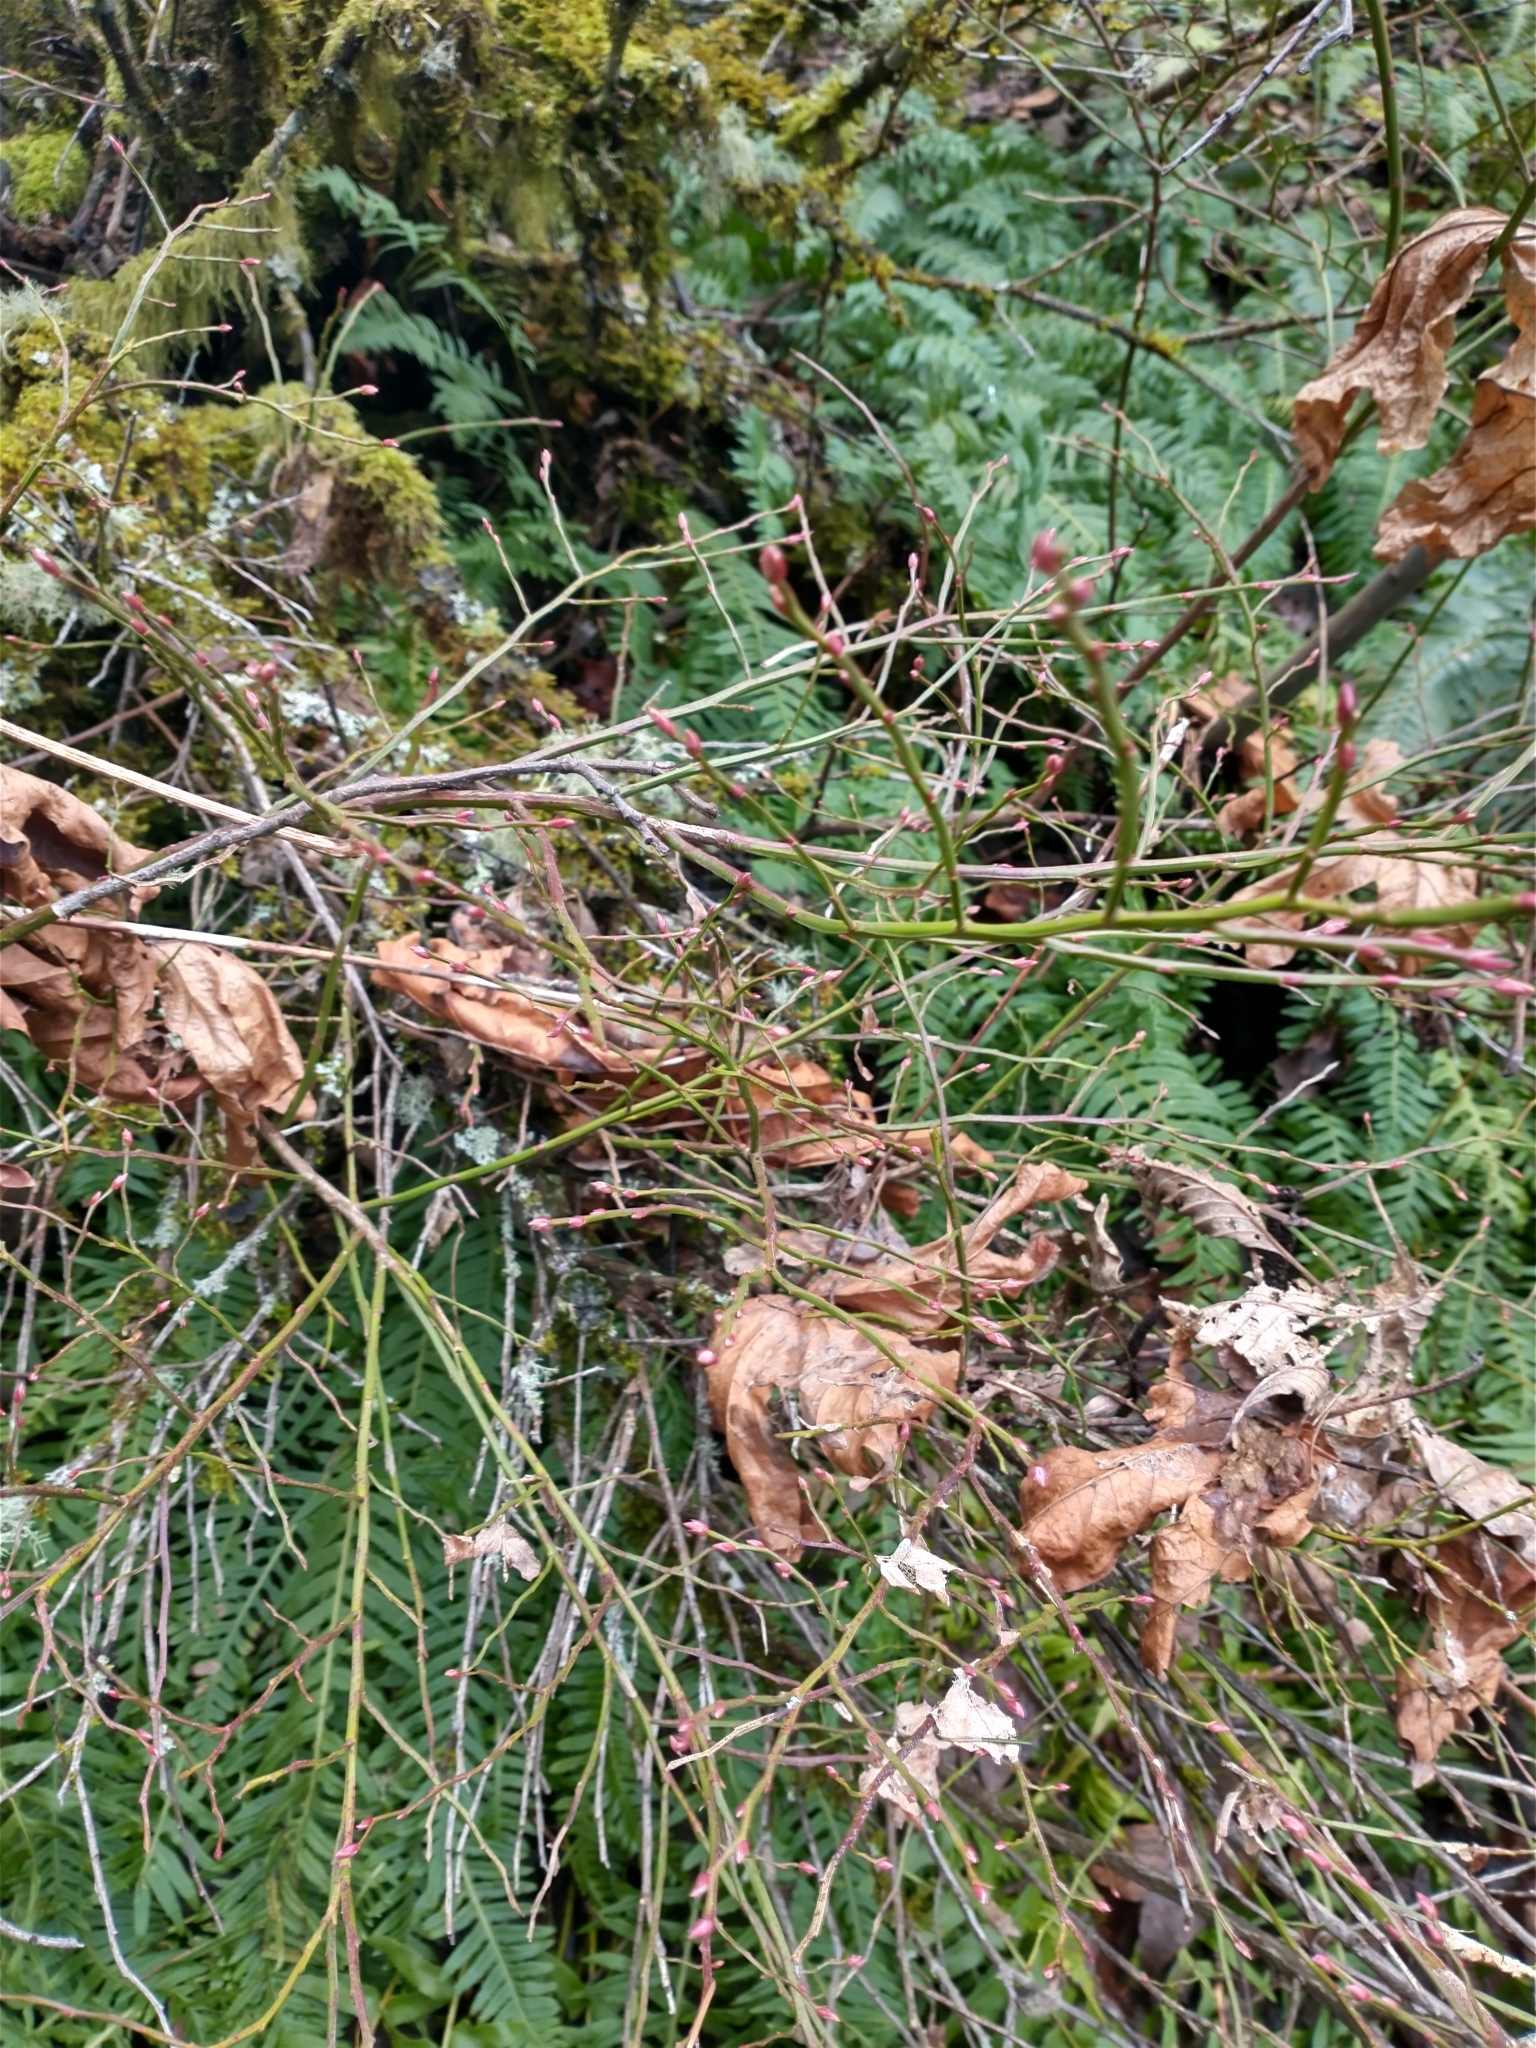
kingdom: Plantae
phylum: Tracheophyta
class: Magnoliopsida
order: Ericales
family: Ericaceae
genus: Vaccinium
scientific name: Vaccinium parvifolium
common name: Red-huckleberry
